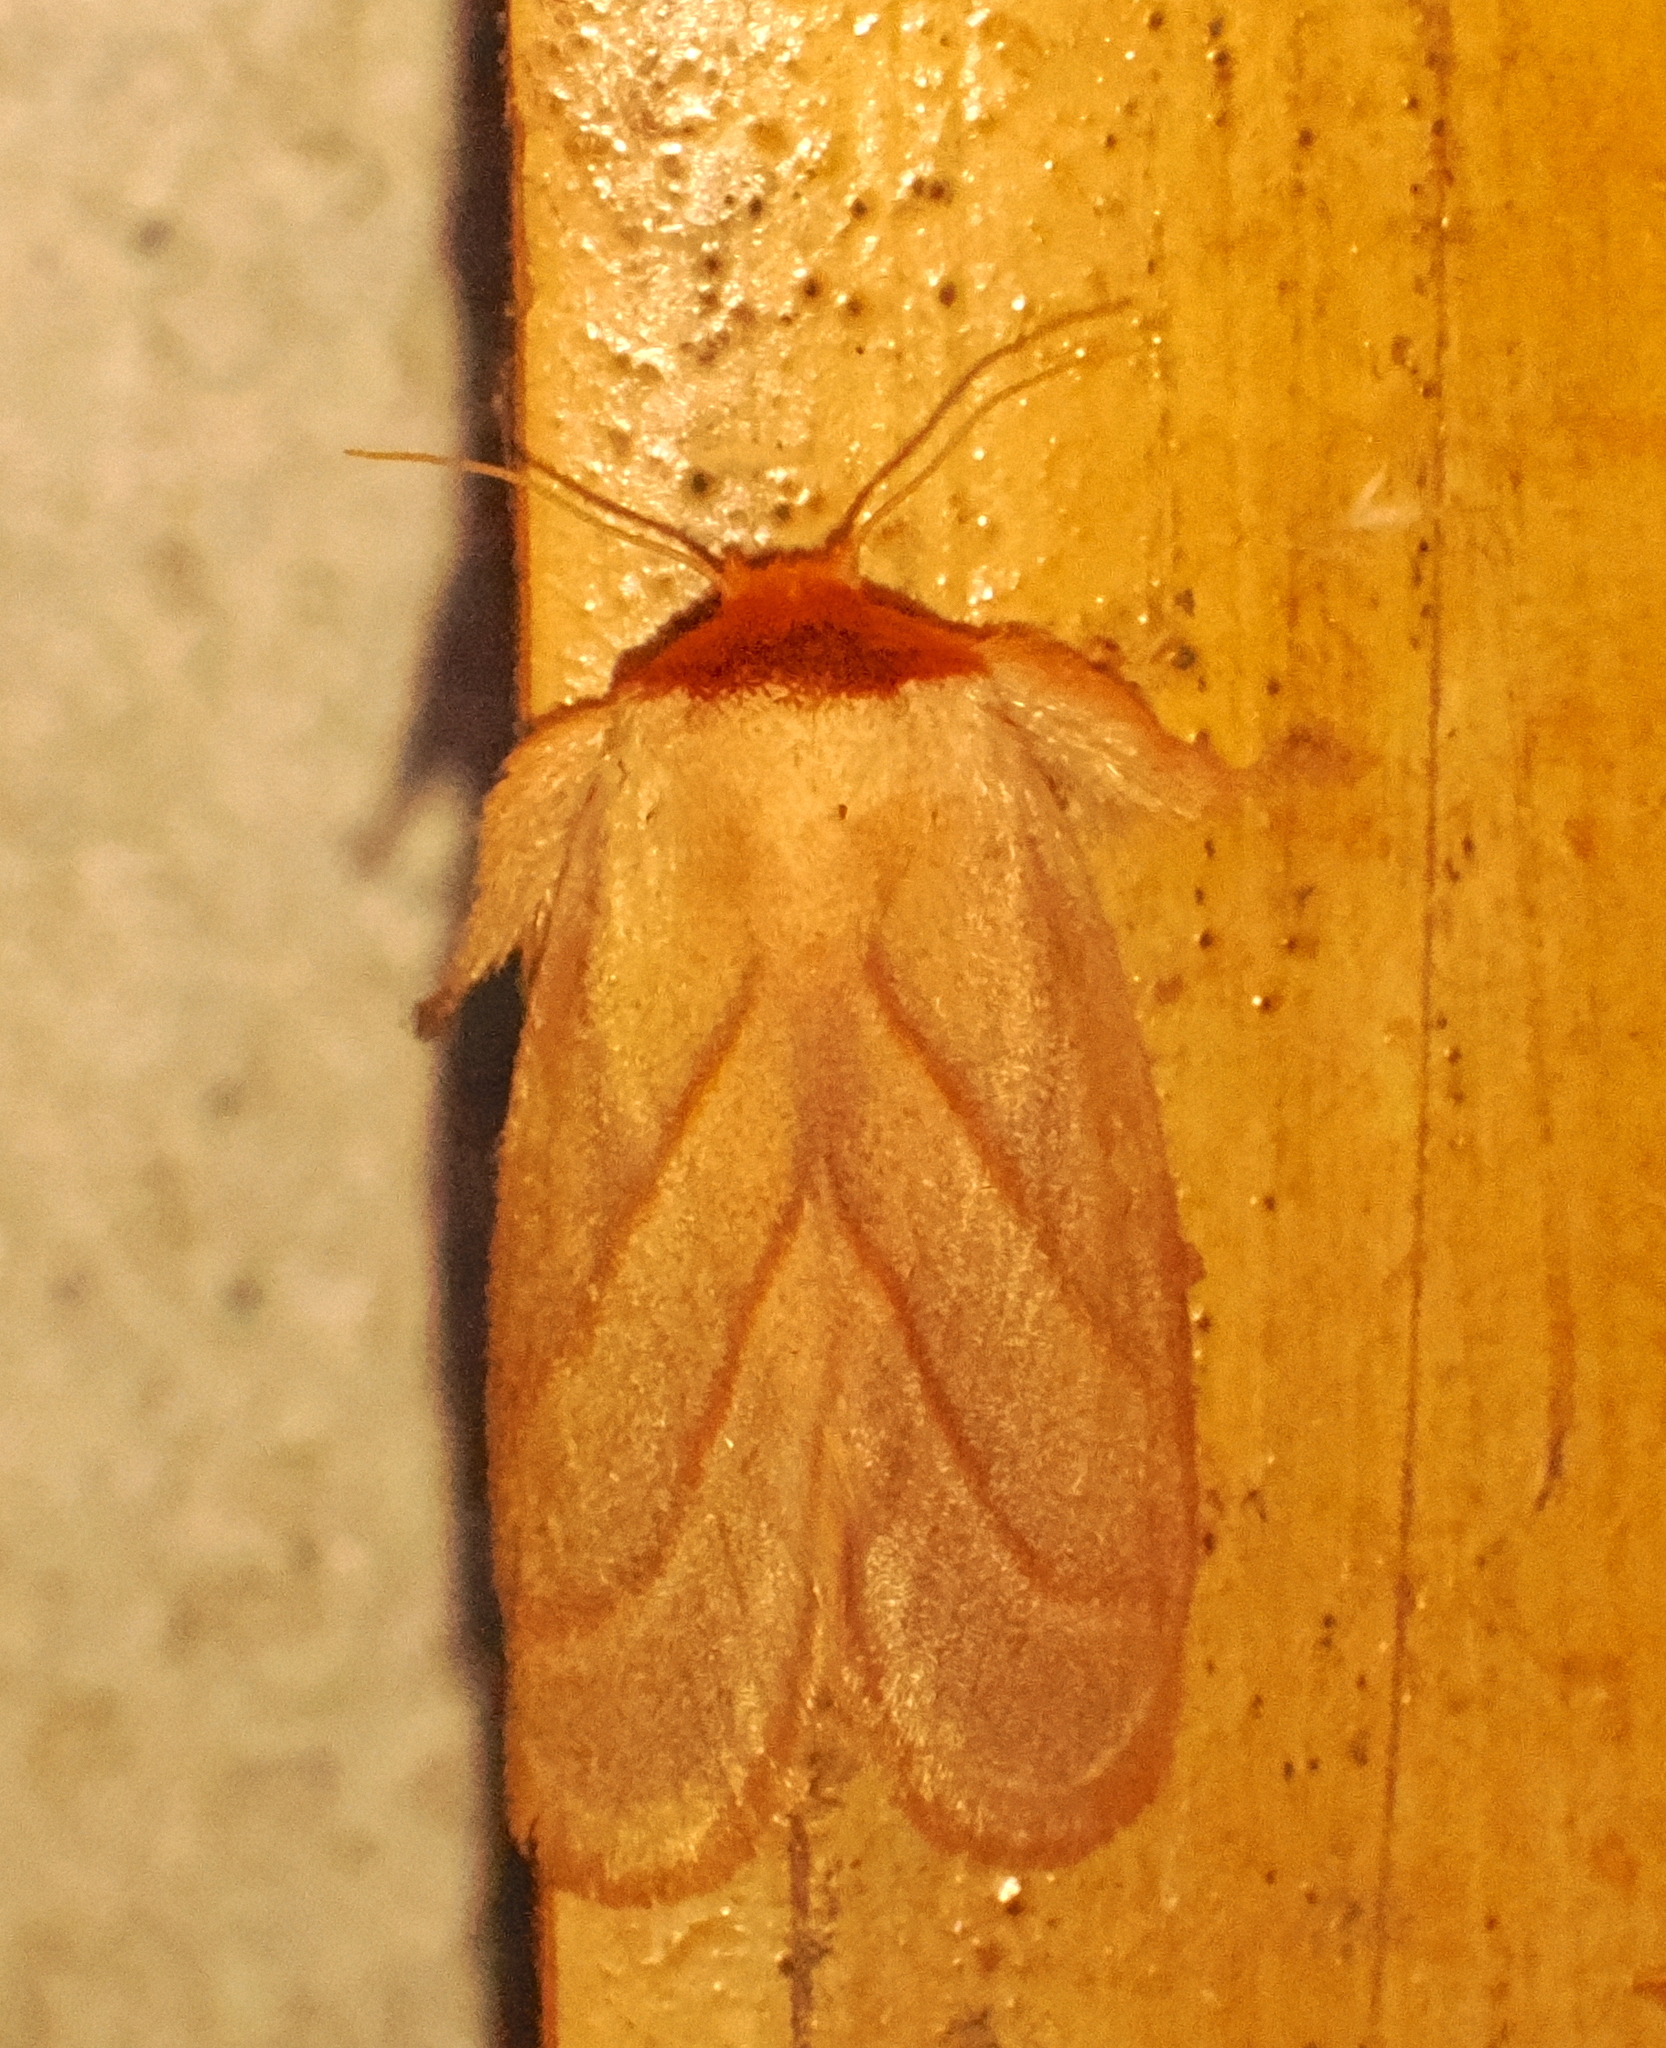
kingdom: Animalia
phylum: Arthropoda
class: Insecta
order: Lepidoptera
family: Limacodidae
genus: Cania
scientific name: Cania bilinea
